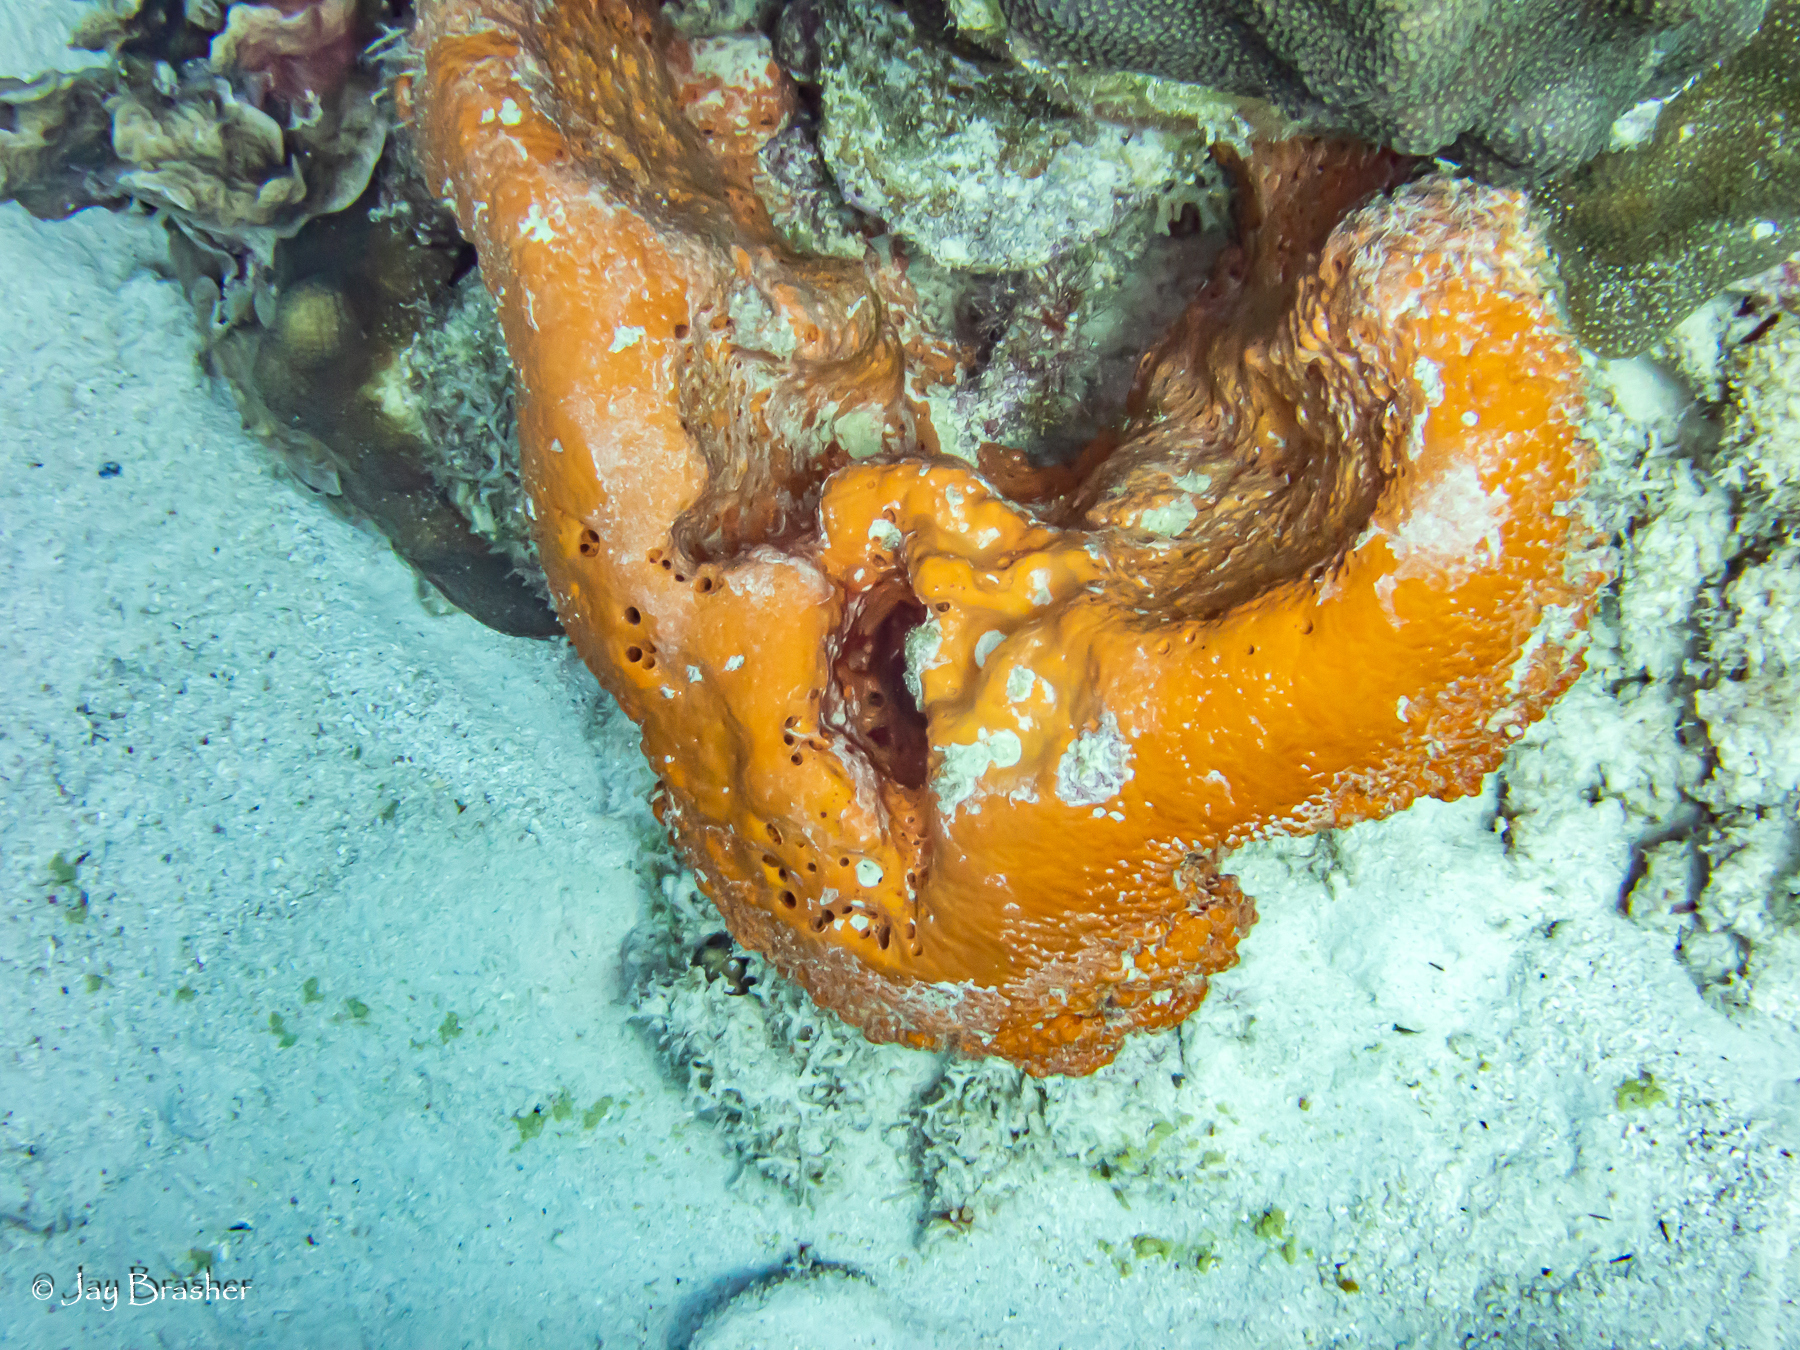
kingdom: Animalia
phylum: Porifera
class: Demospongiae
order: Agelasida
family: Agelasidae
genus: Agelas
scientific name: Agelas clathrodes
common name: Orange elephant ear sponge
